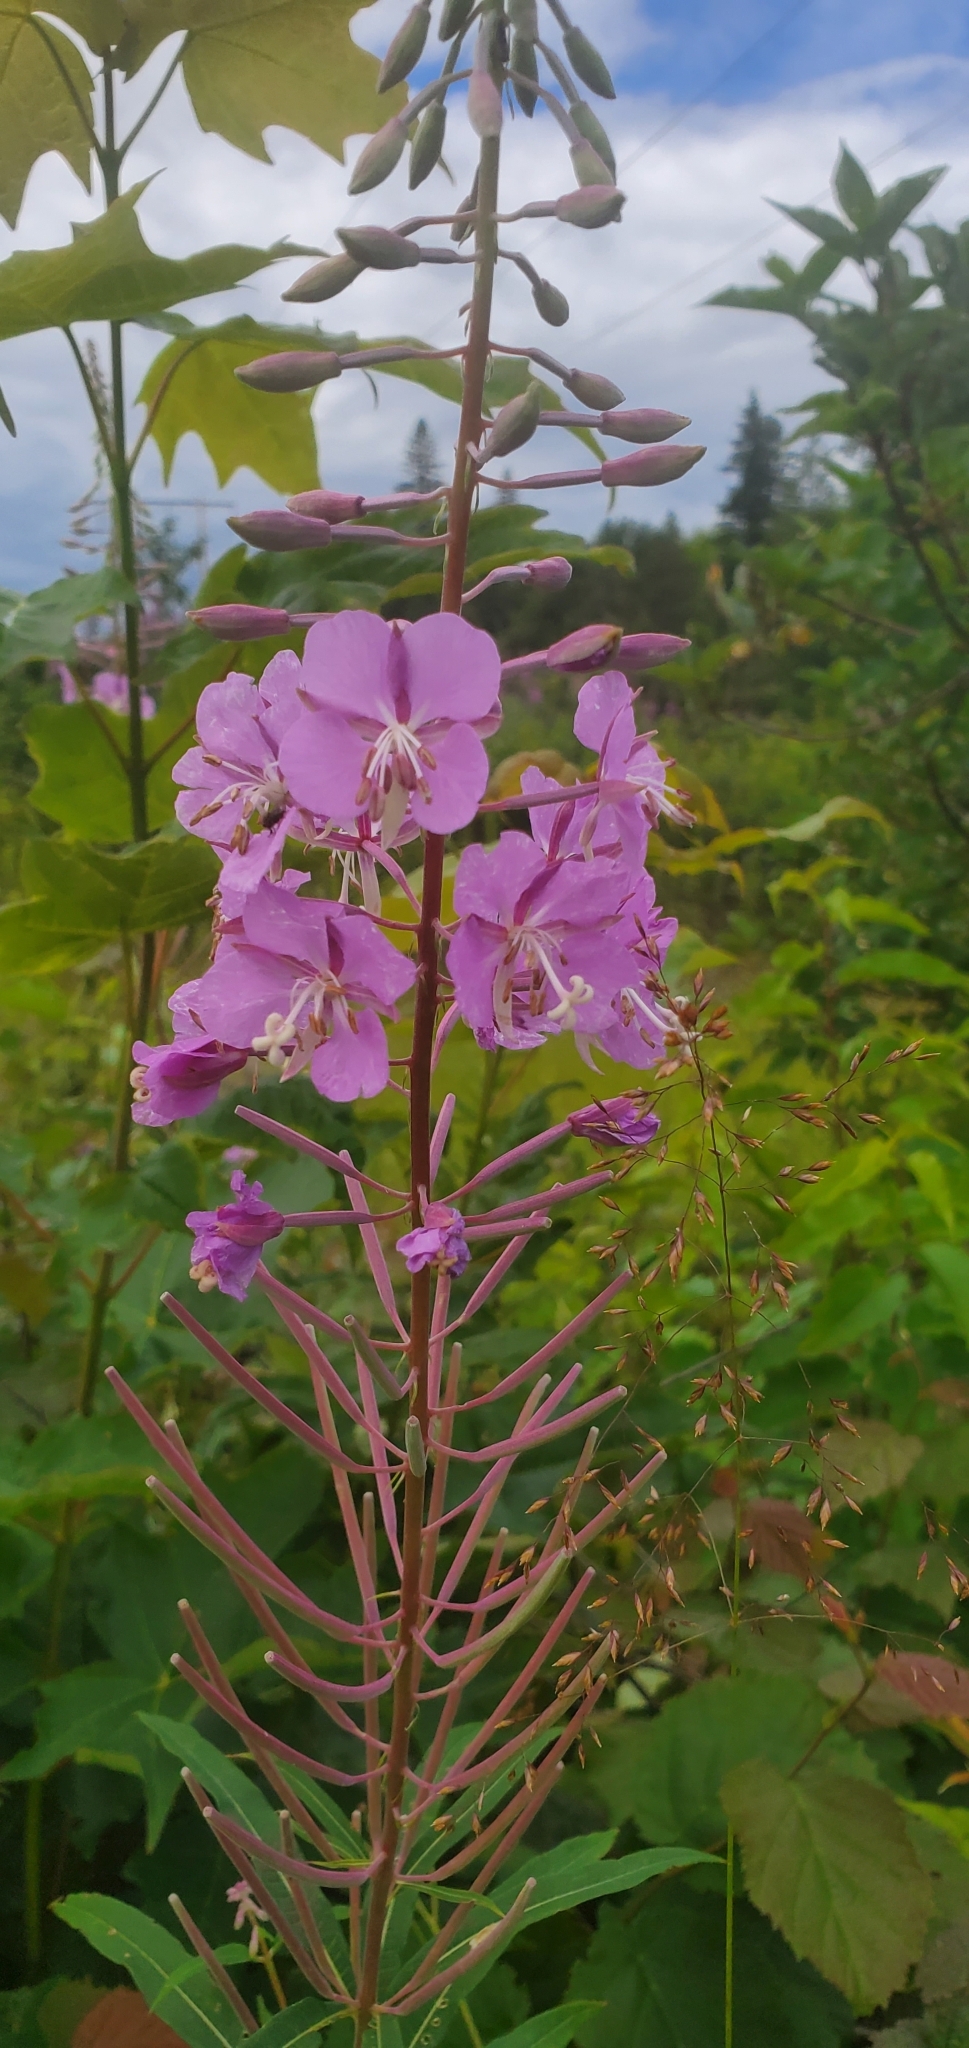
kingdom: Plantae
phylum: Tracheophyta
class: Magnoliopsida
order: Myrtales
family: Onagraceae
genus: Chamaenerion
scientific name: Chamaenerion angustifolium
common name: Fireweed
